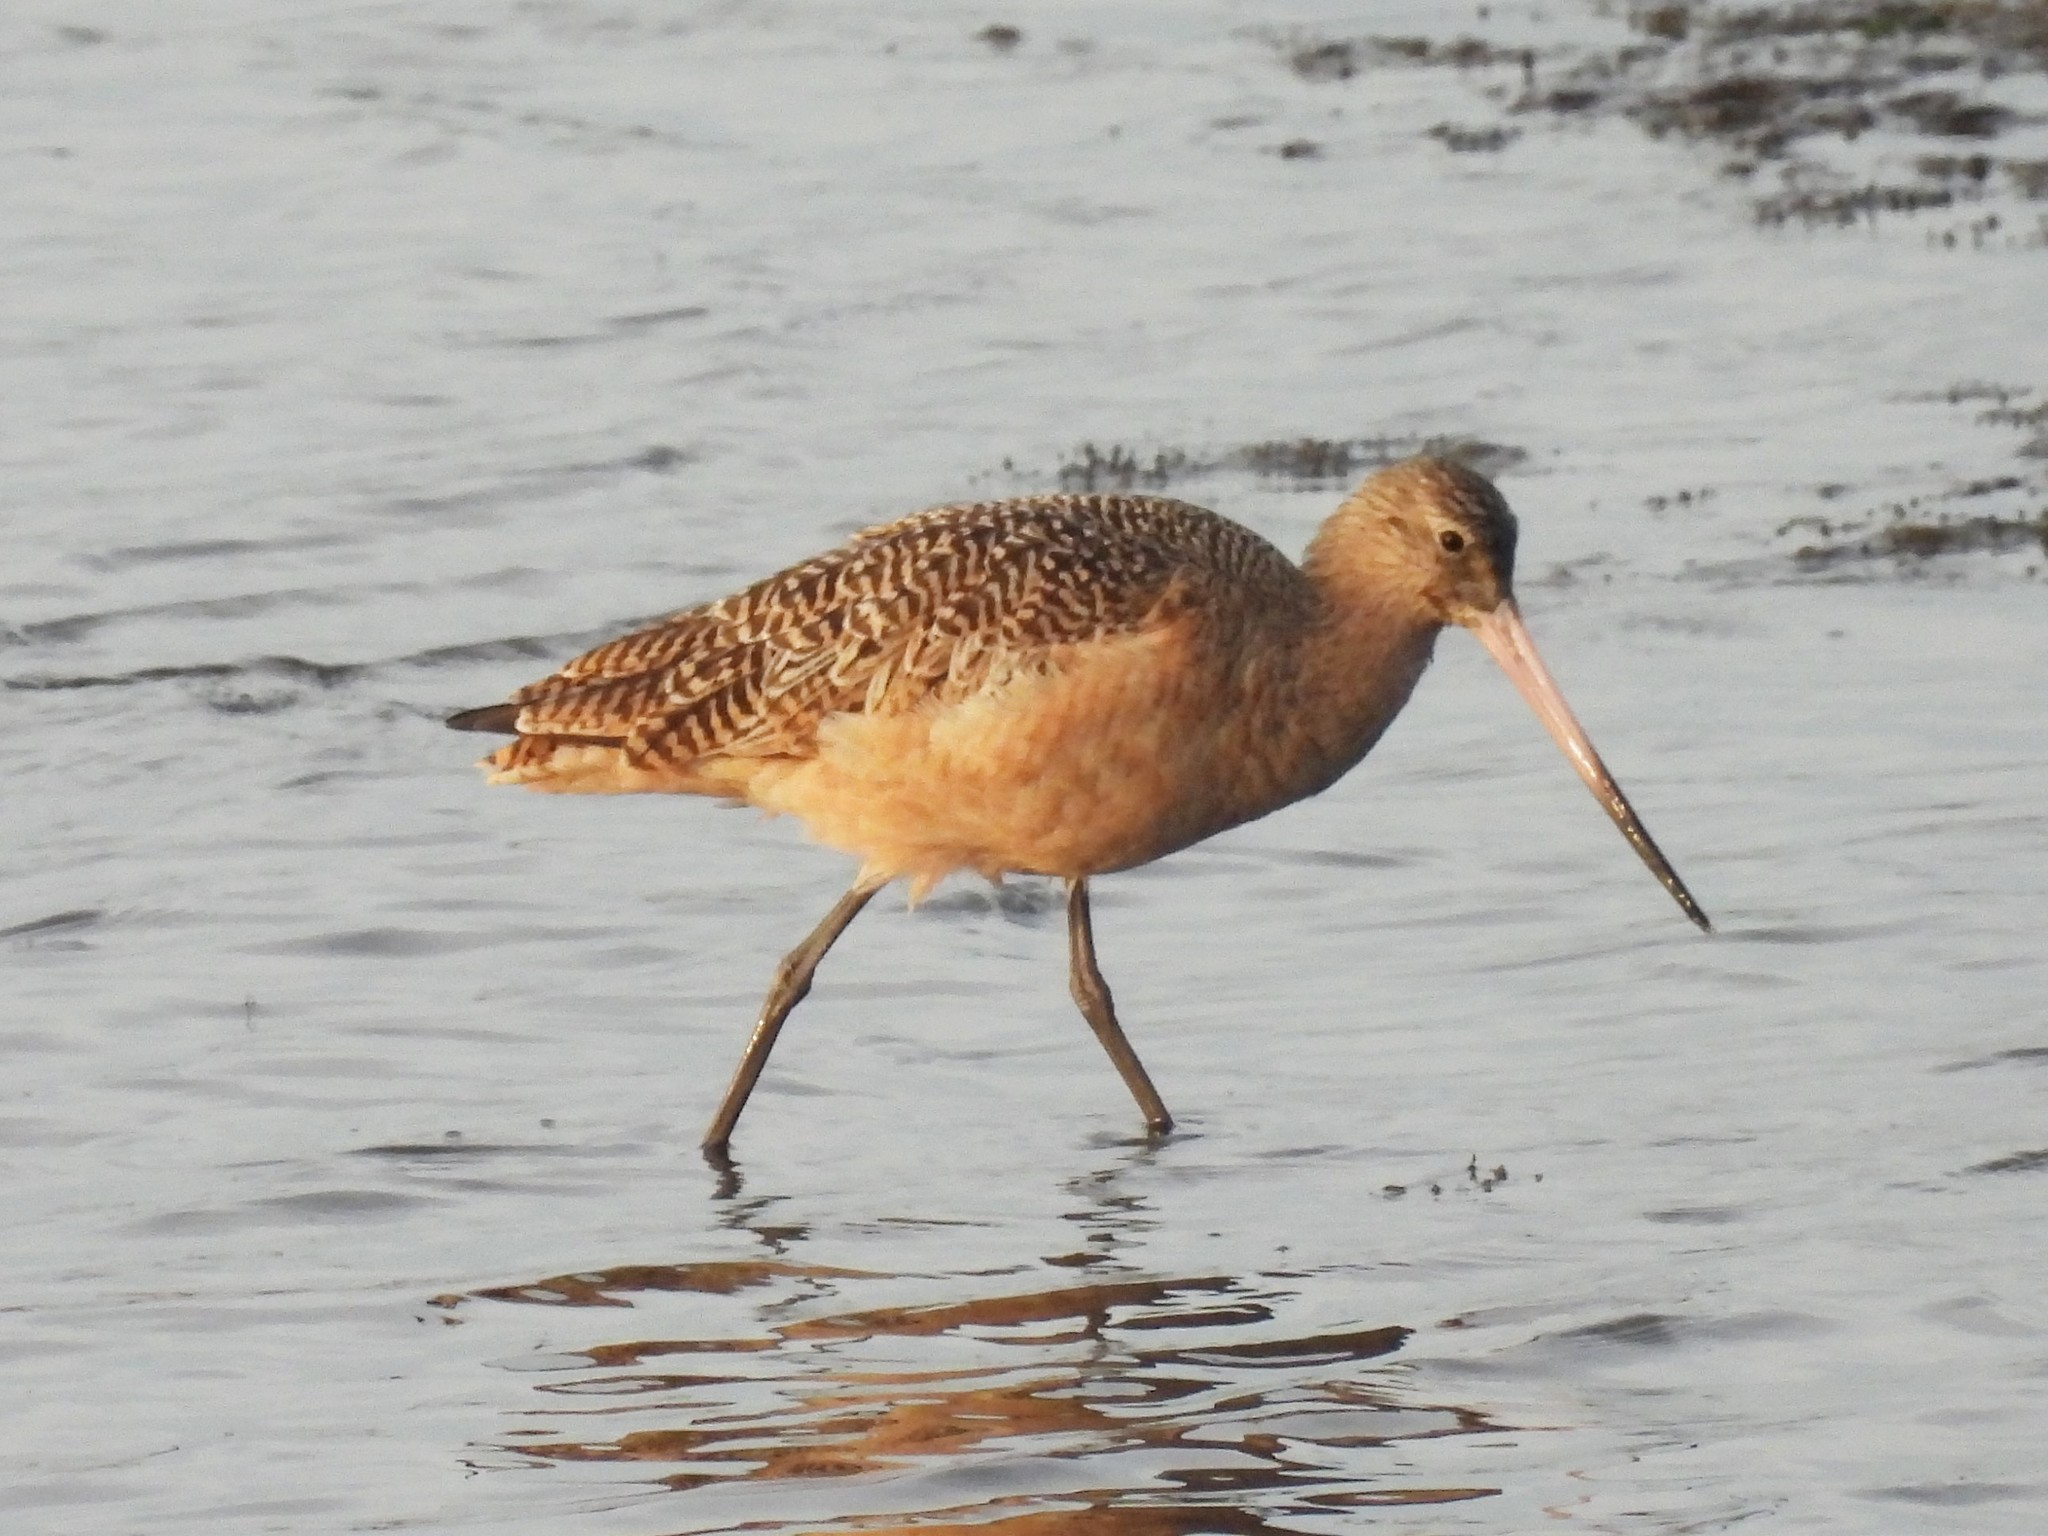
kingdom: Animalia
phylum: Chordata
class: Aves
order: Charadriiformes
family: Scolopacidae
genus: Limosa
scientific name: Limosa fedoa
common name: Marbled godwit
